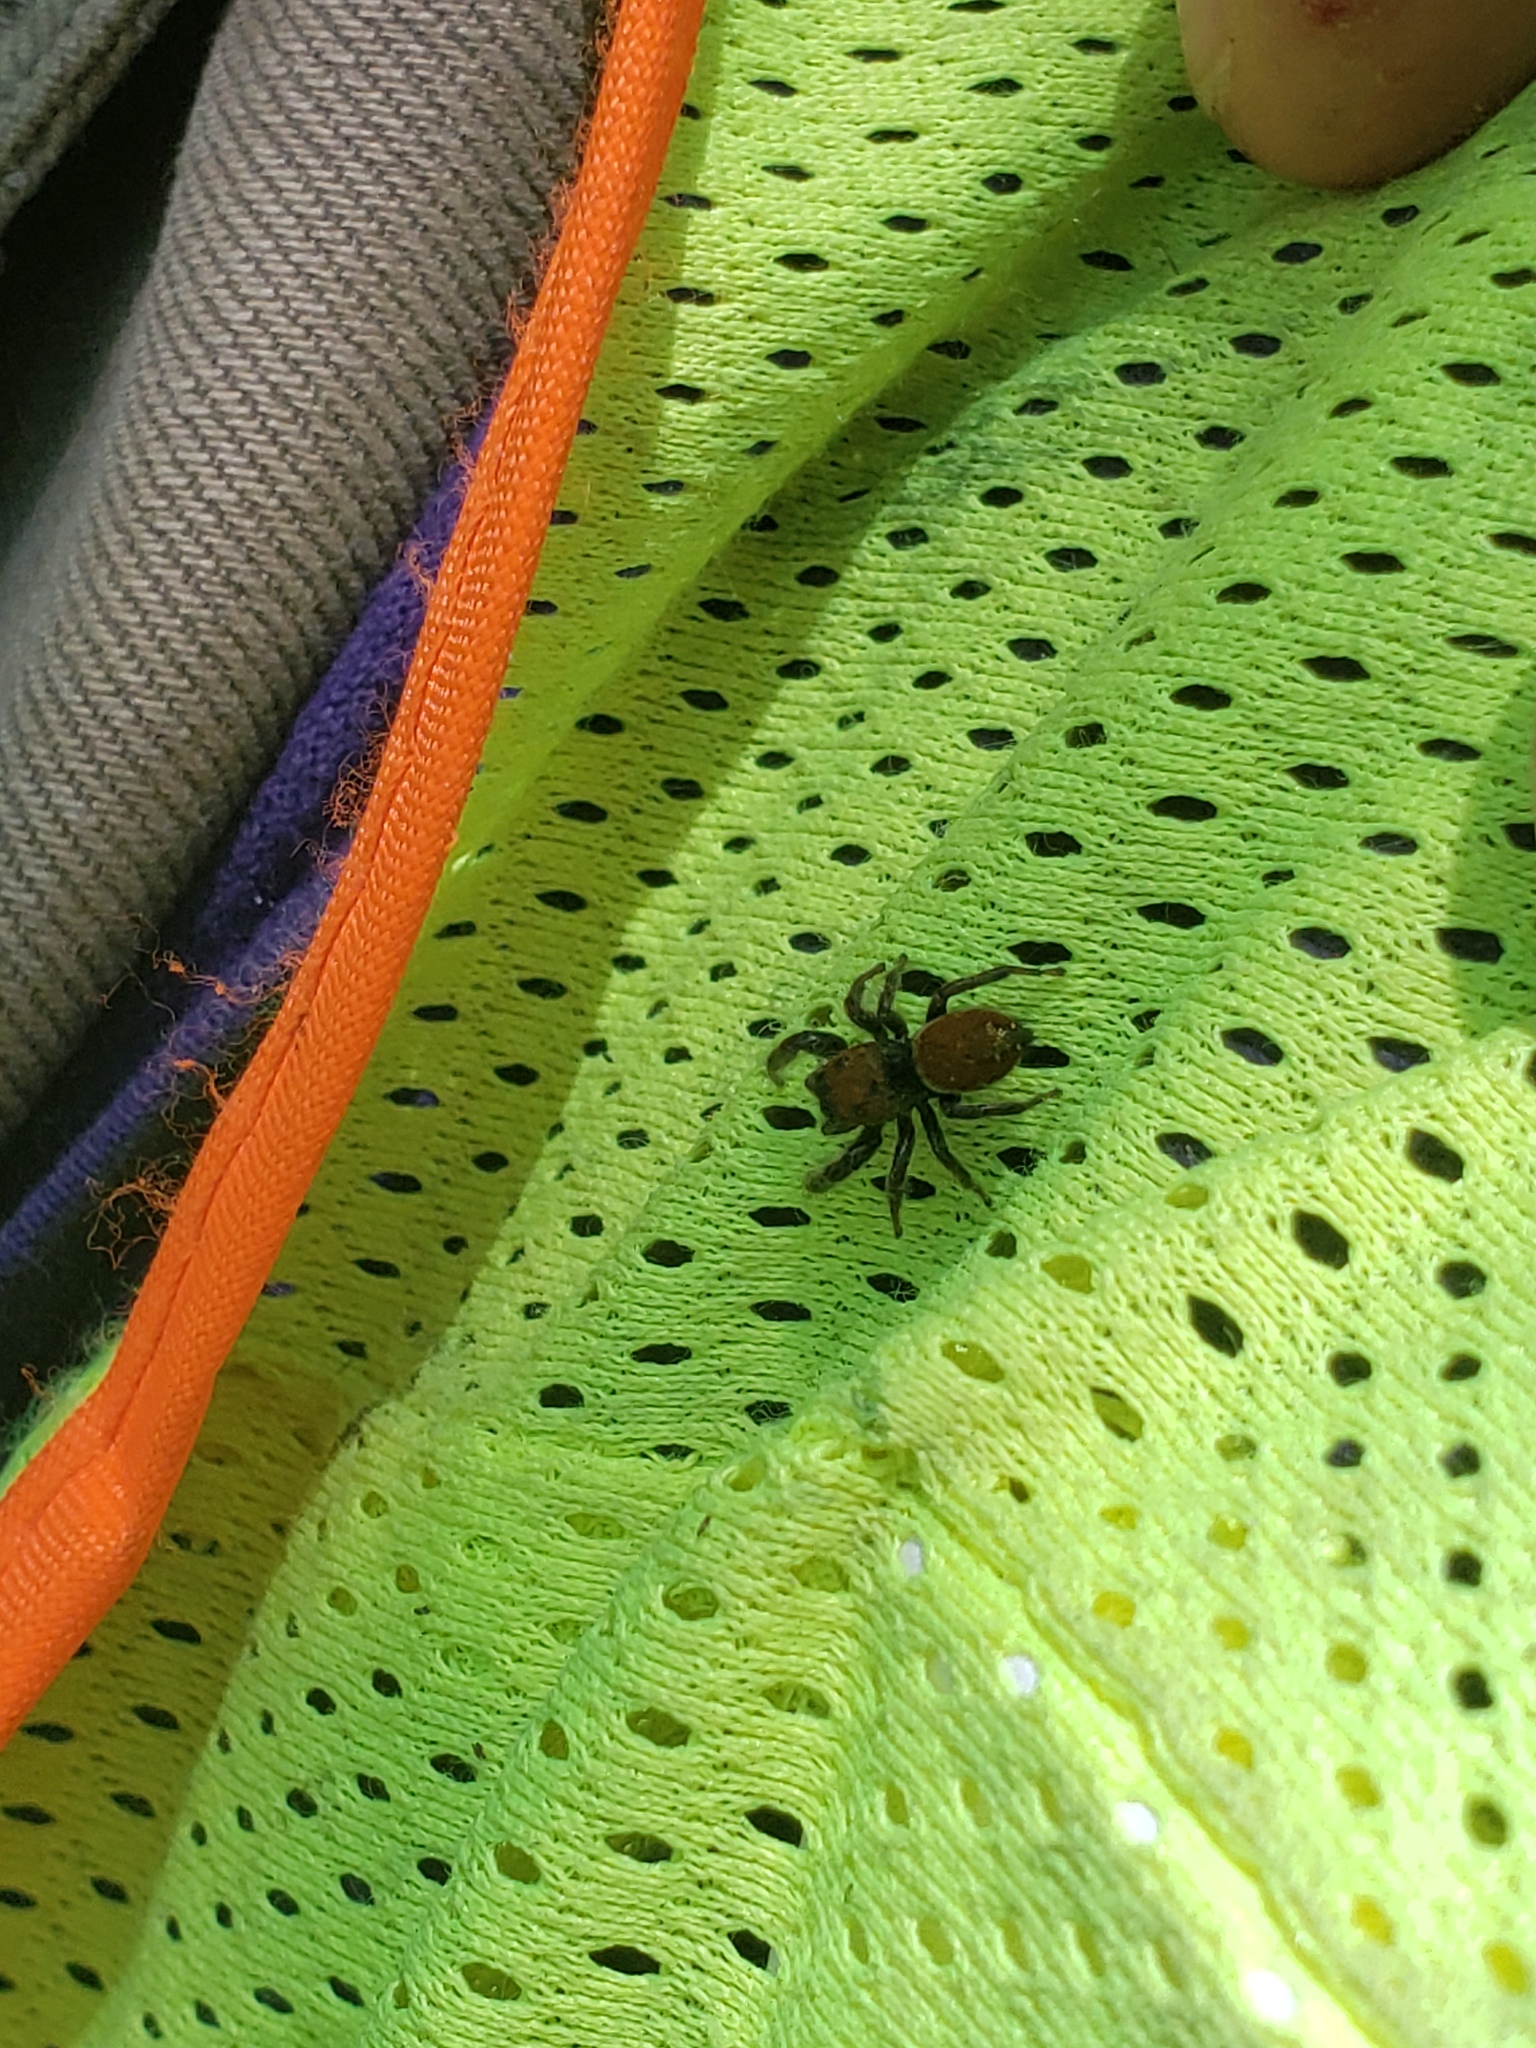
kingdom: Animalia
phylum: Arthropoda
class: Arachnida
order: Araneae
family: Salticidae
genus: Phidippus
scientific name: Phidippus whitmani
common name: Whitman's jumping spider
